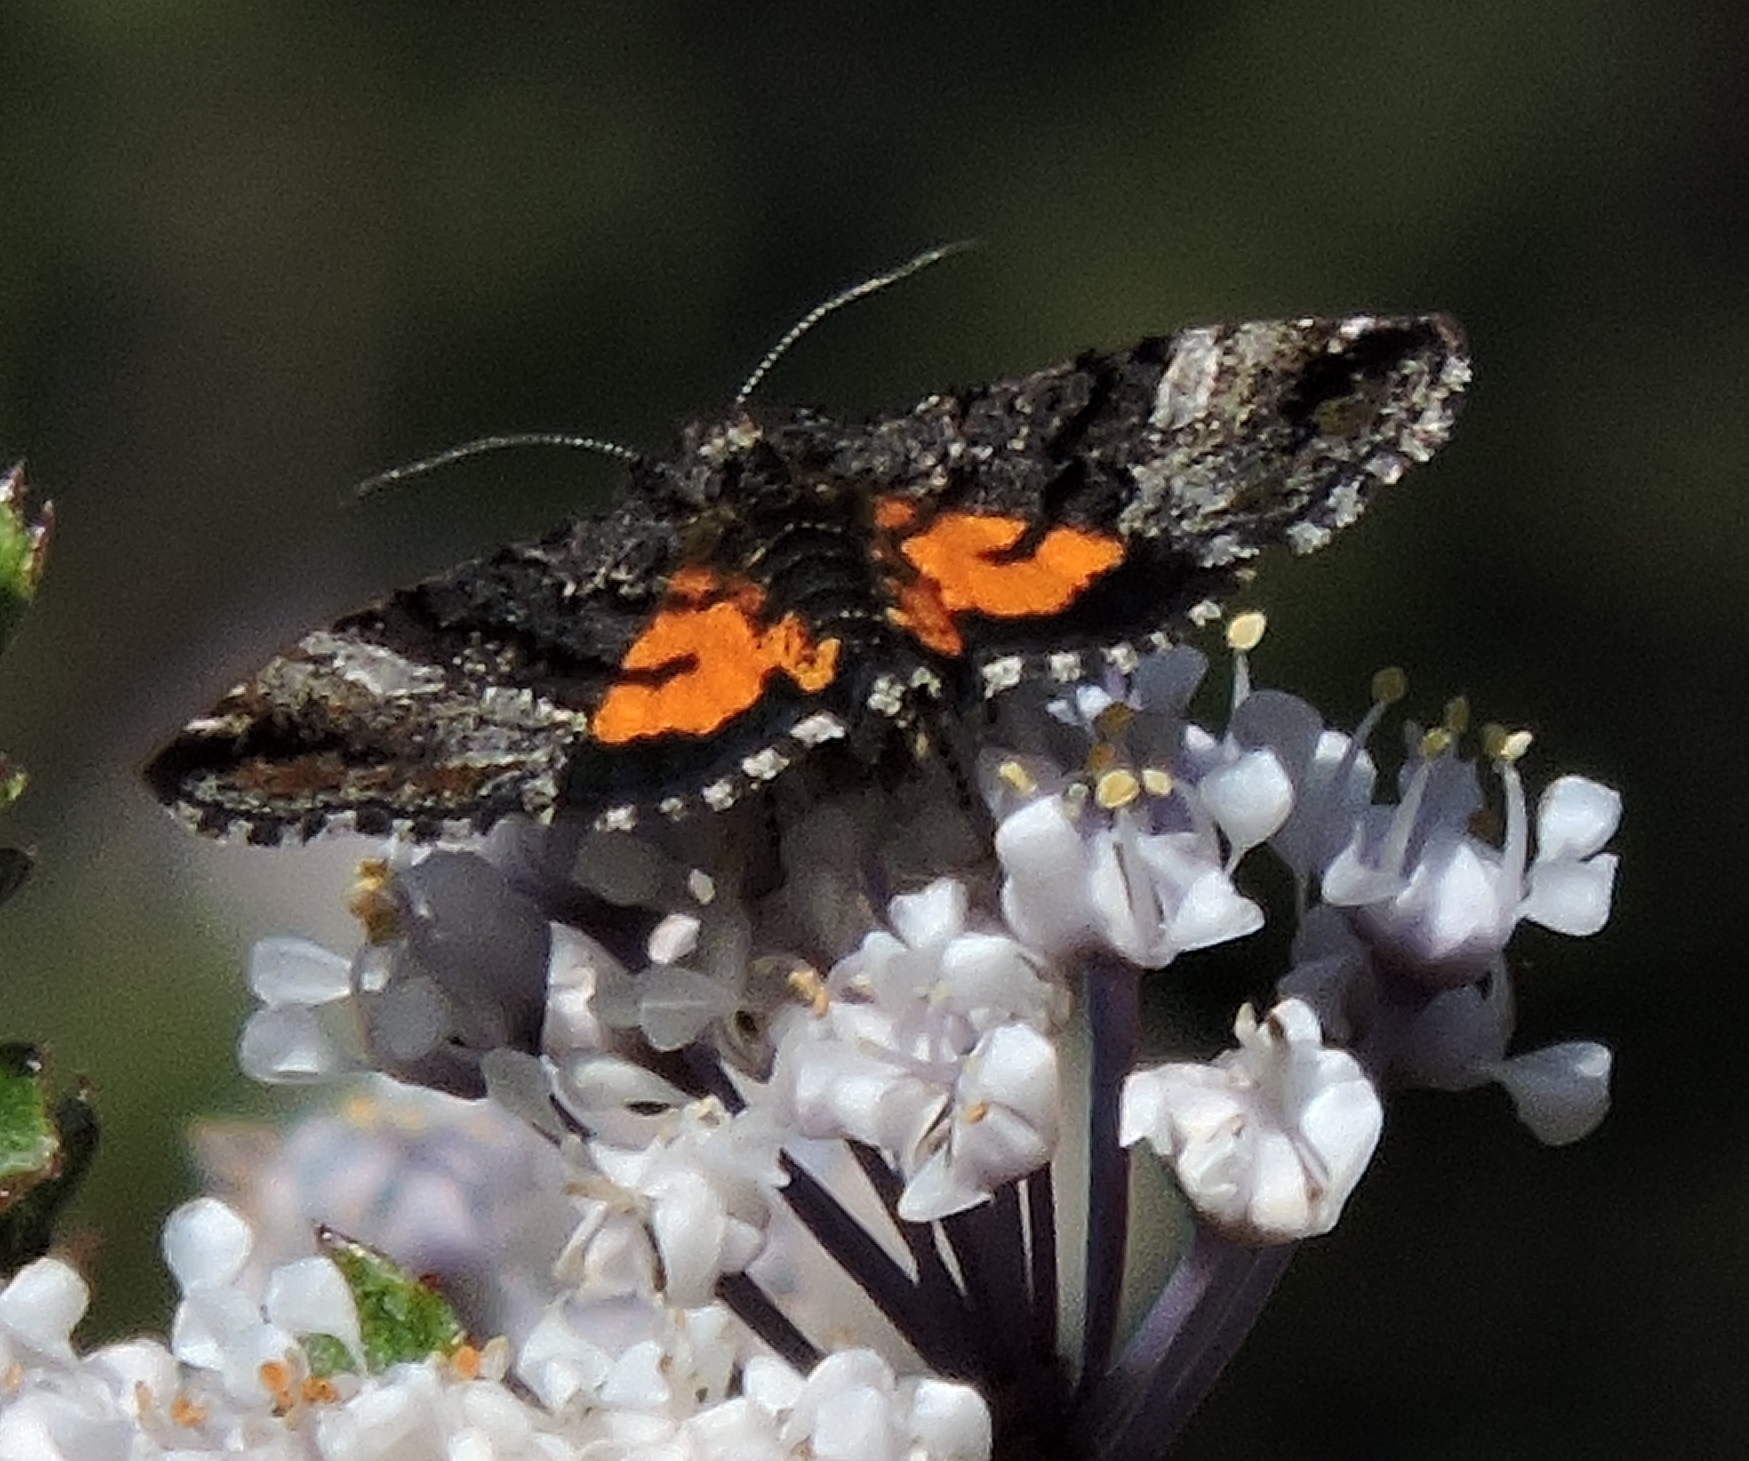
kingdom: Animalia
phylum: Arthropoda
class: Insecta
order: Lepidoptera
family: Noctuidae
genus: Annaphila
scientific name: Annaphila decia
